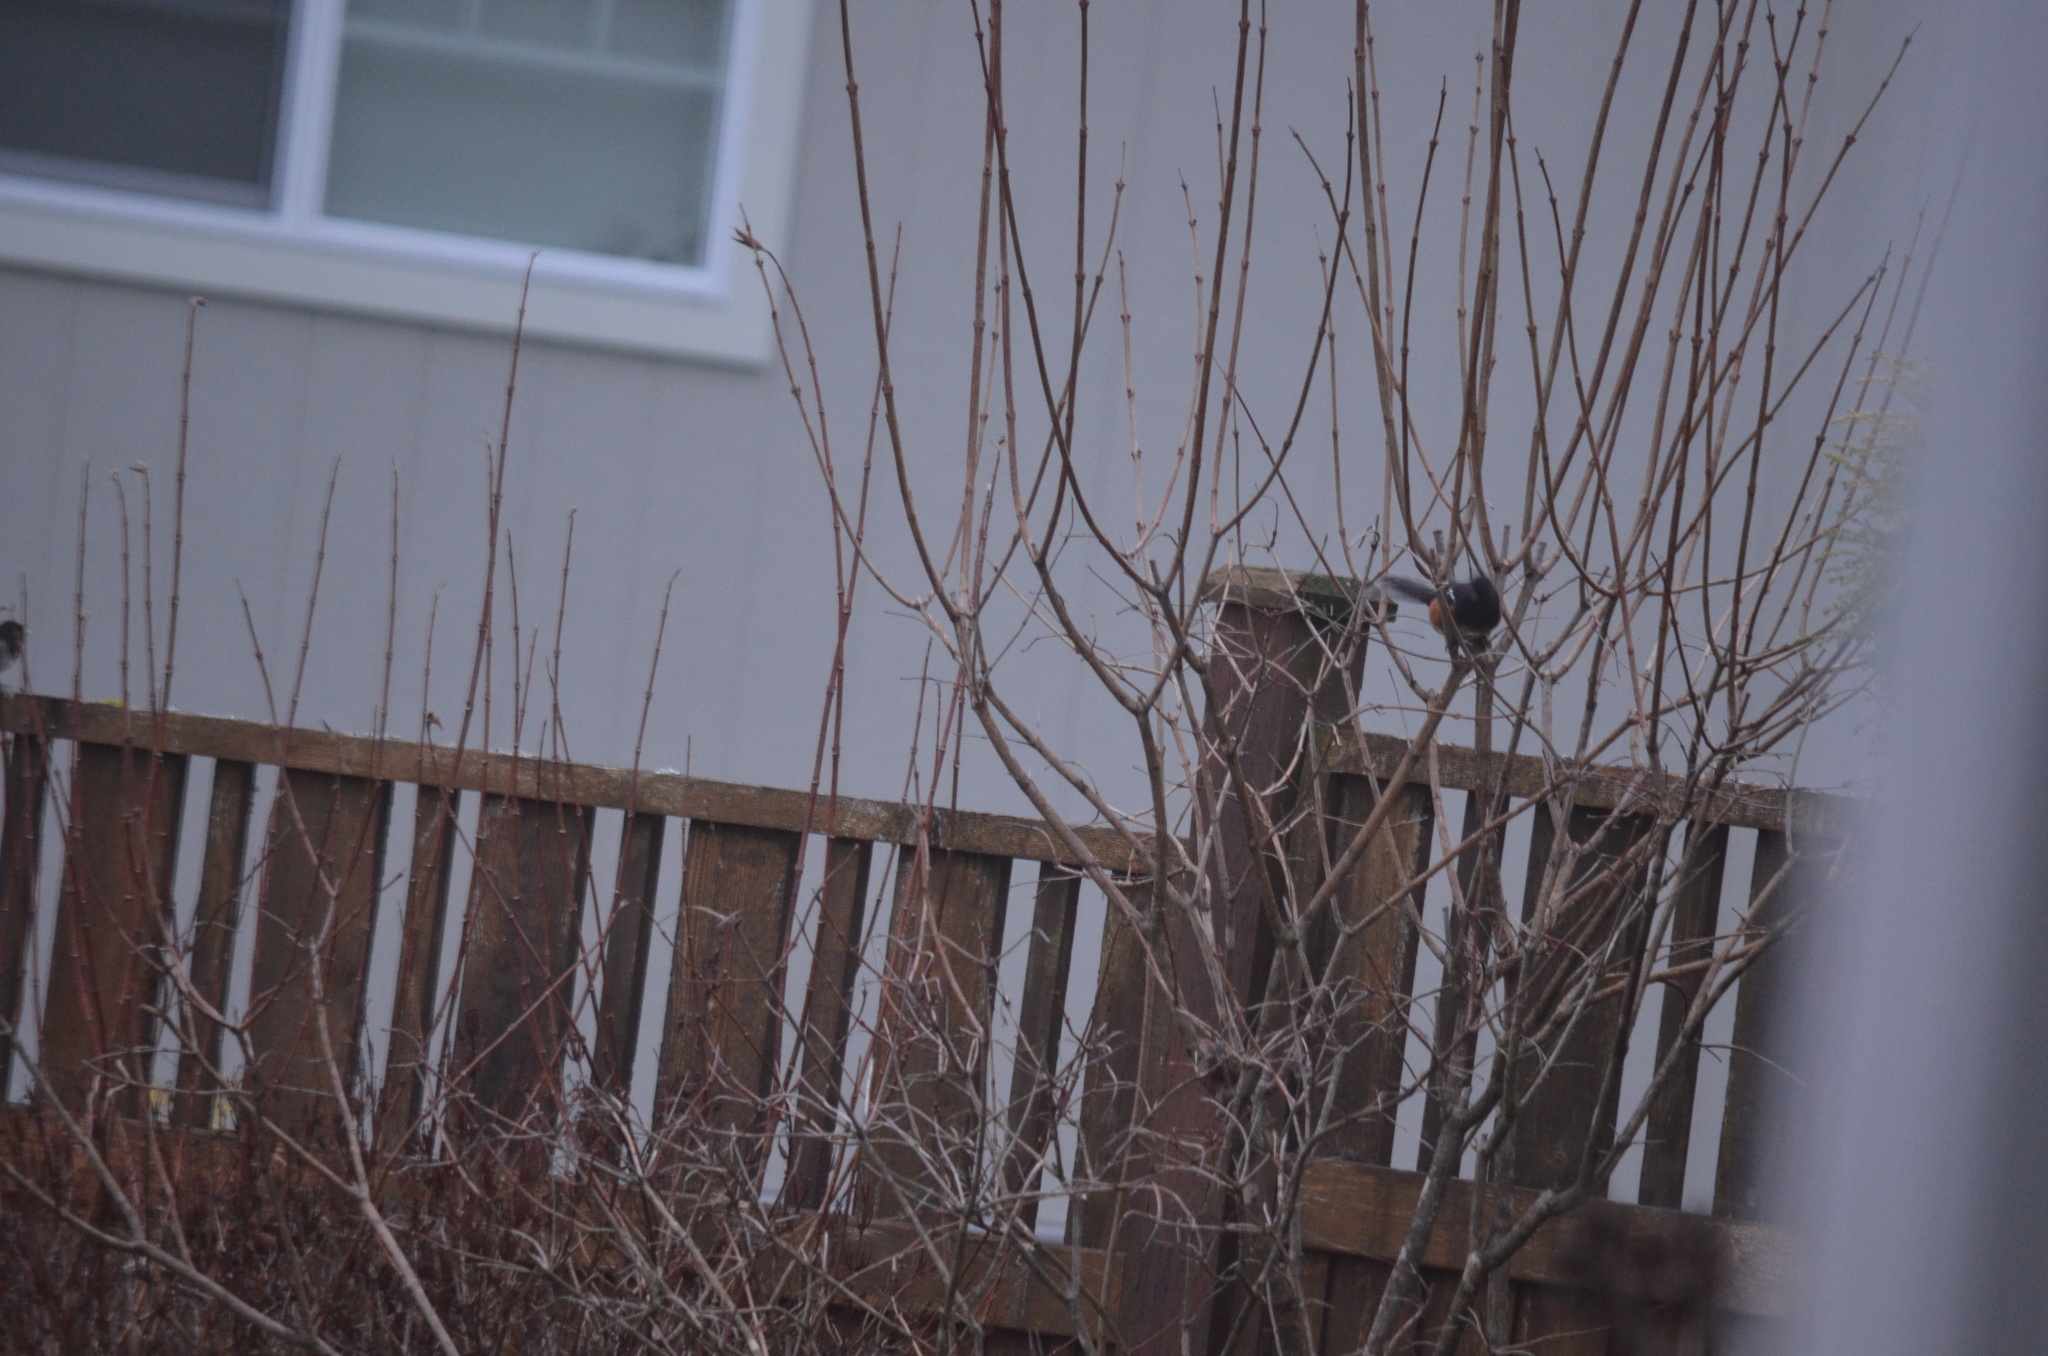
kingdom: Animalia
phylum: Chordata
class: Aves
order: Passeriformes
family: Passerellidae
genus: Pipilo
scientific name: Pipilo maculatus
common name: Spotted towhee
